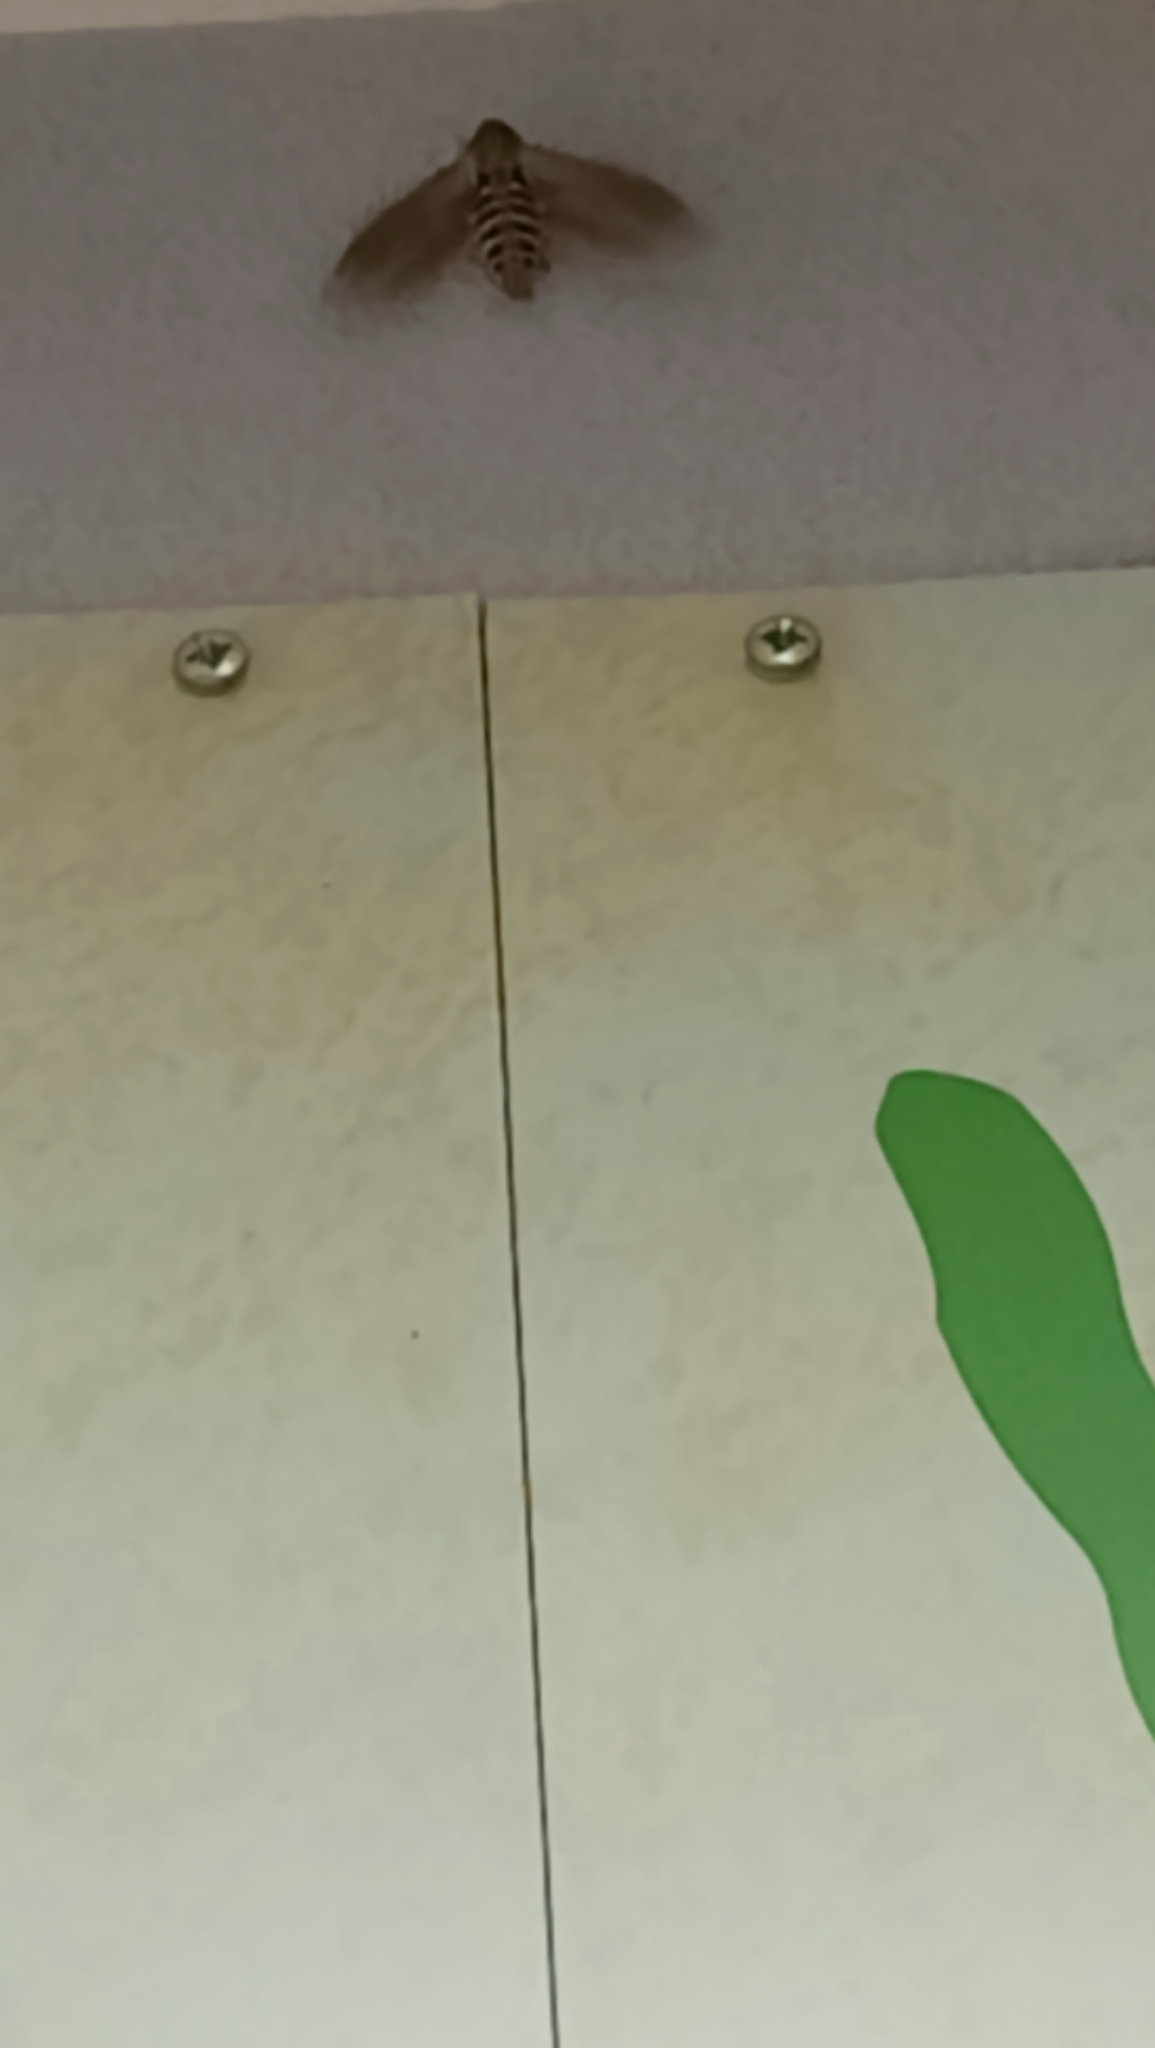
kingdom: Animalia
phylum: Arthropoda
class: Insecta
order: Lepidoptera
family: Sphingidae
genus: Agrius
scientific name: Agrius convolvuli
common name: Convolvulus hawkmoth
